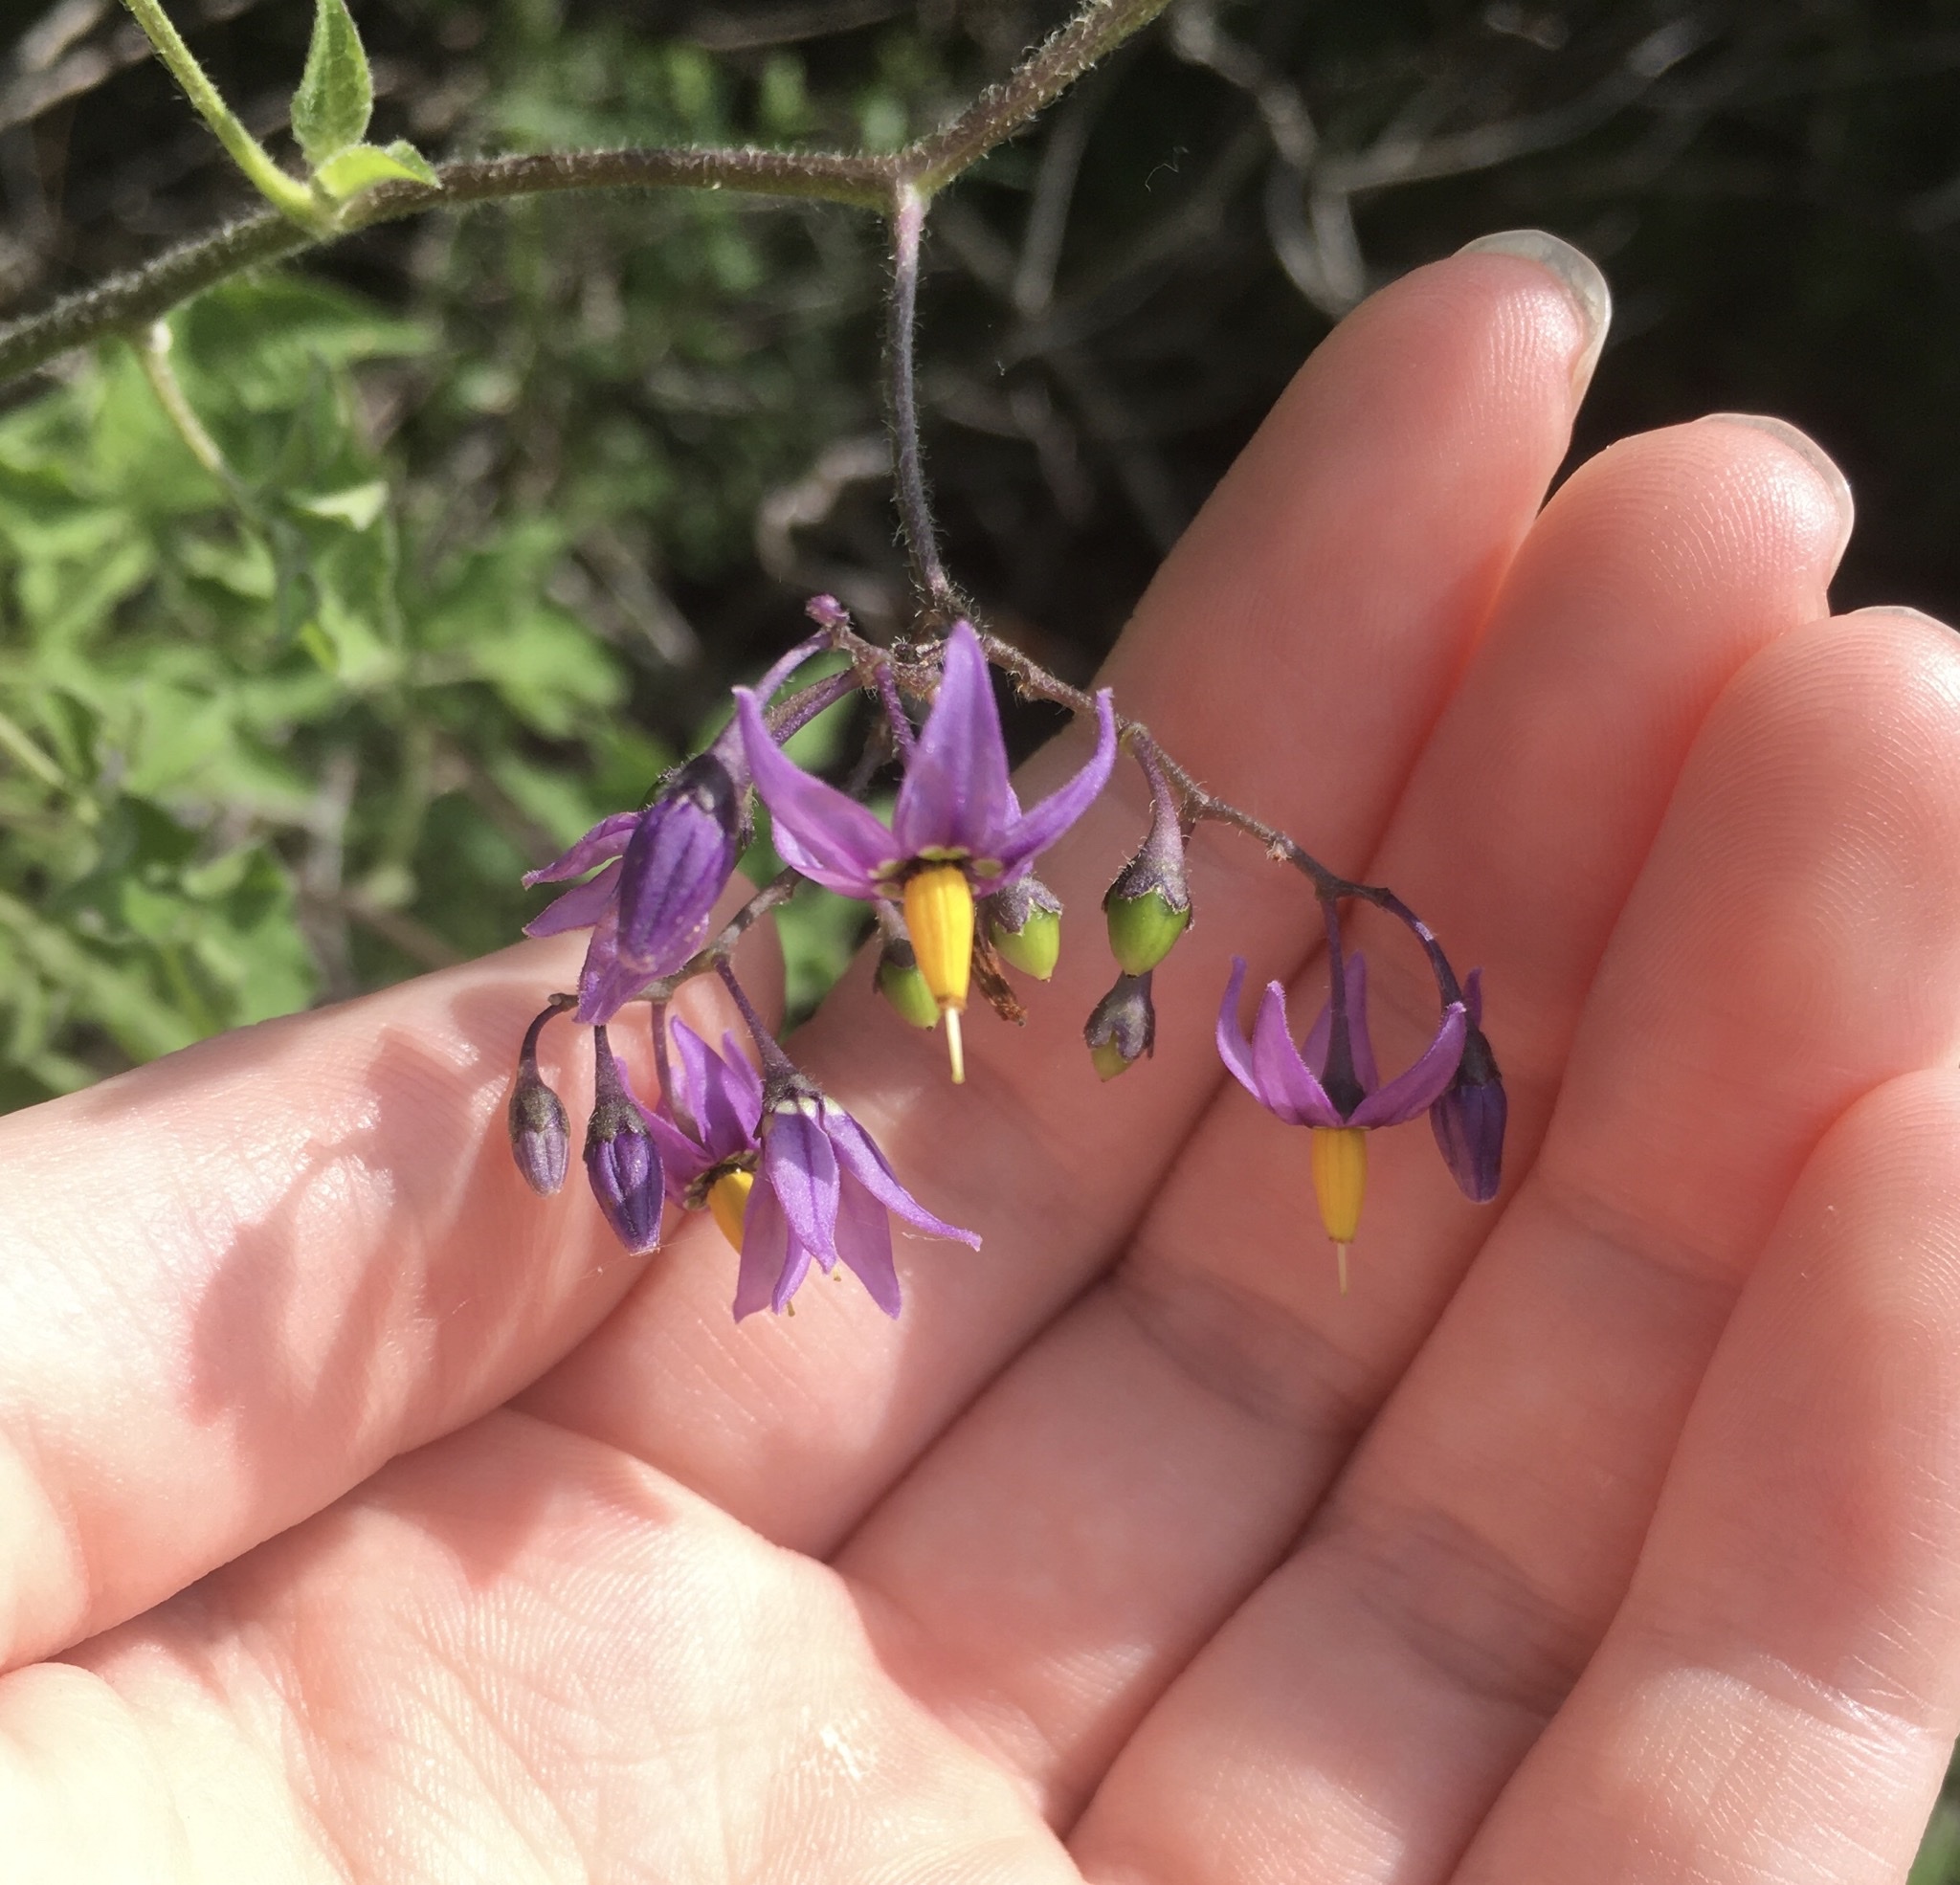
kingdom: Plantae
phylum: Tracheophyta
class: Magnoliopsida
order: Solanales
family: Solanaceae
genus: Solanum
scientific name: Solanum dulcamara
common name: Climbing nightshade
